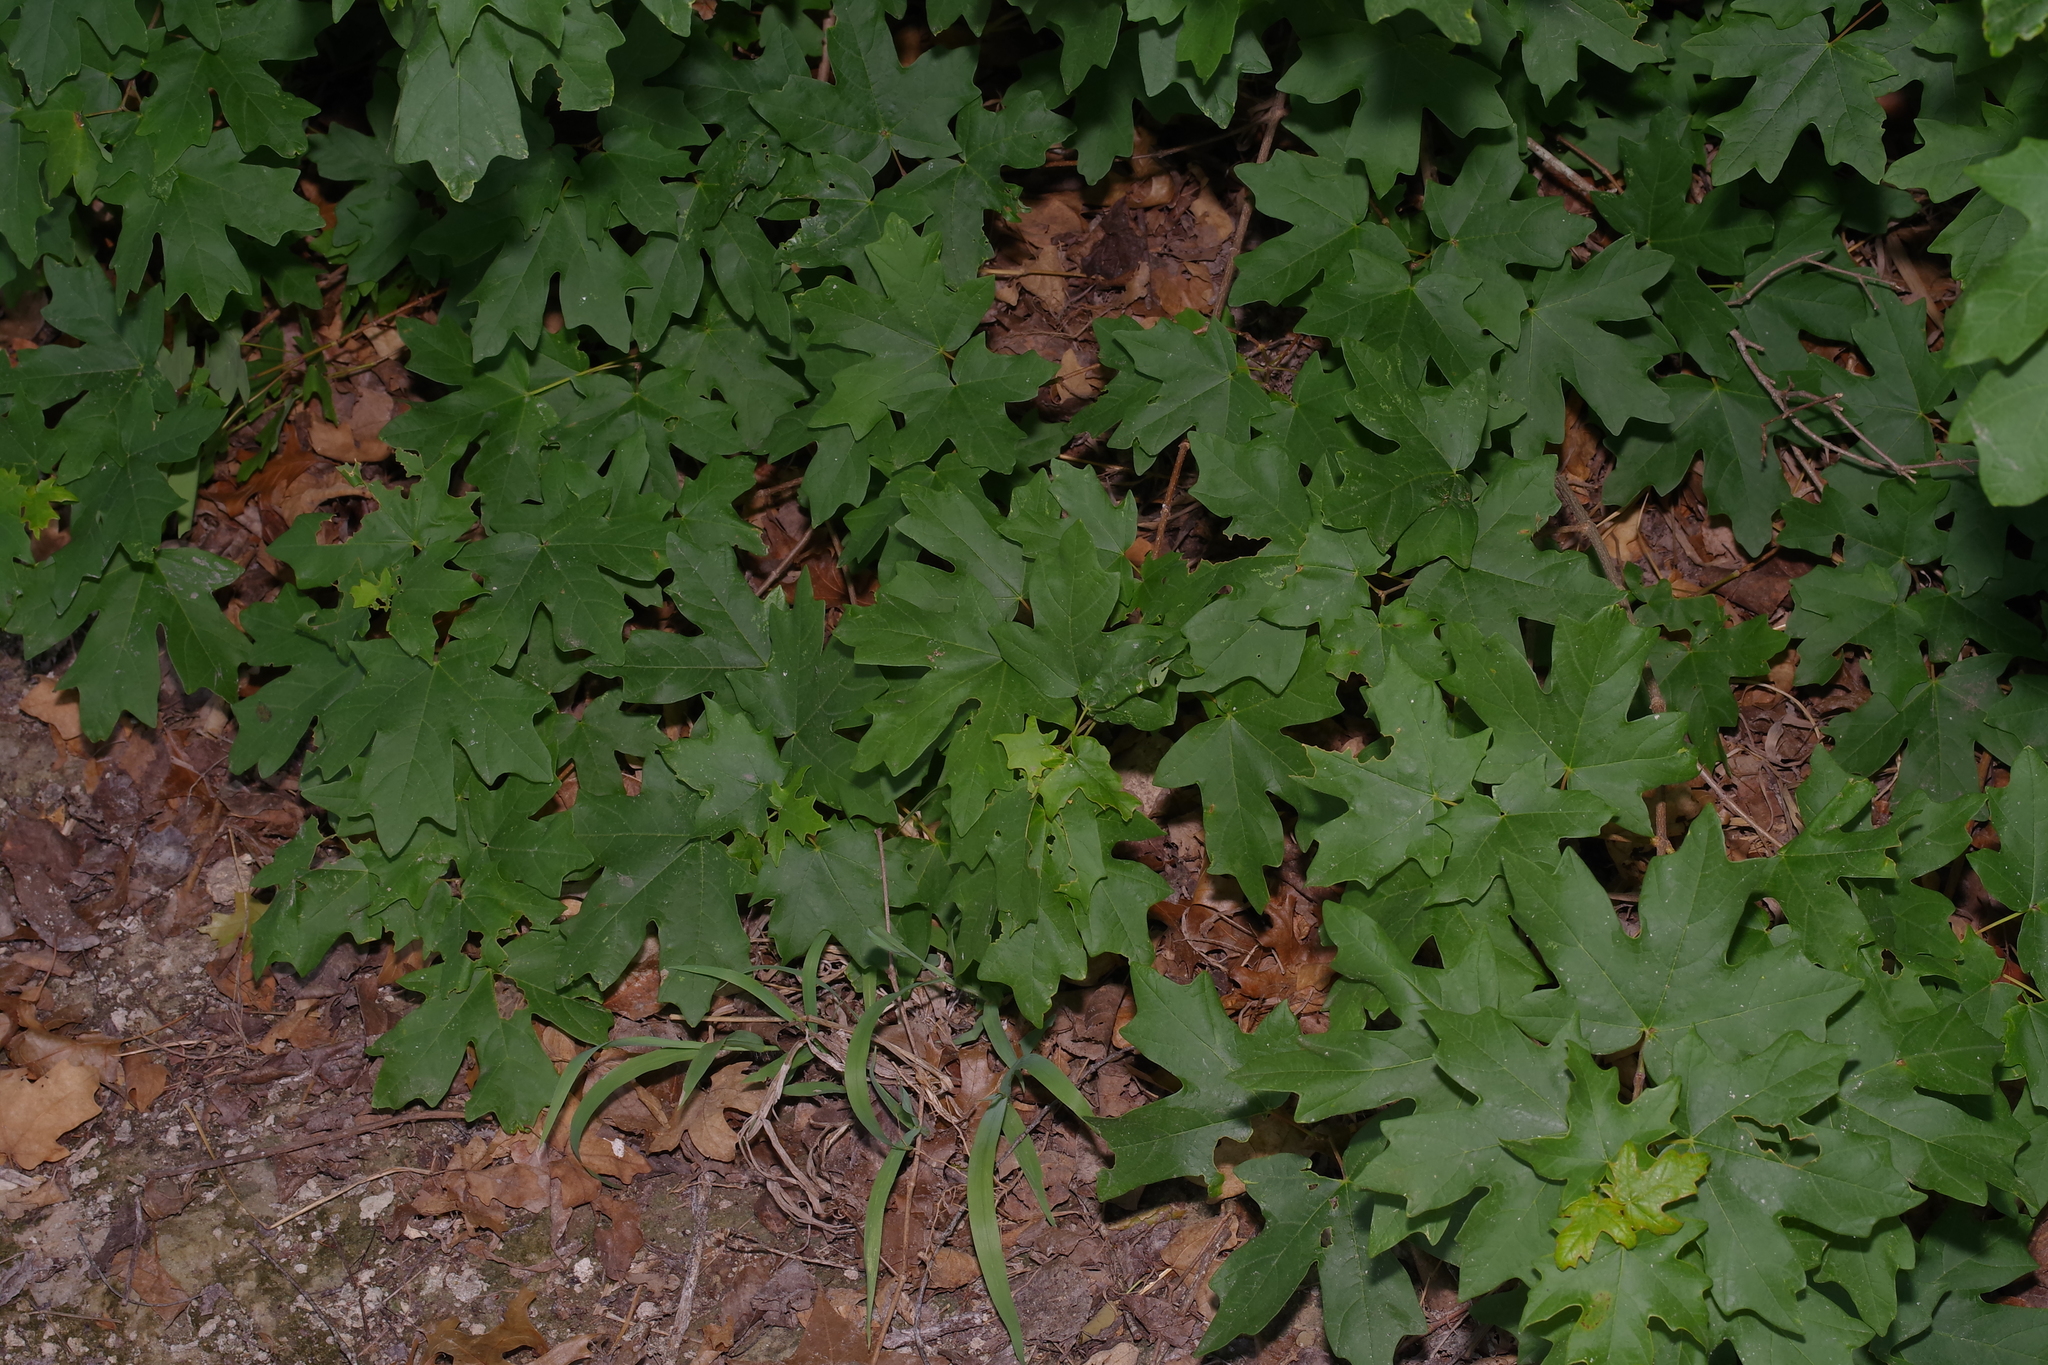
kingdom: Plantae
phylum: Tracheophyta
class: Magnoliopsida
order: Sapindales
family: Sapindaceae
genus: Acer
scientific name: Acer grandidentatum
